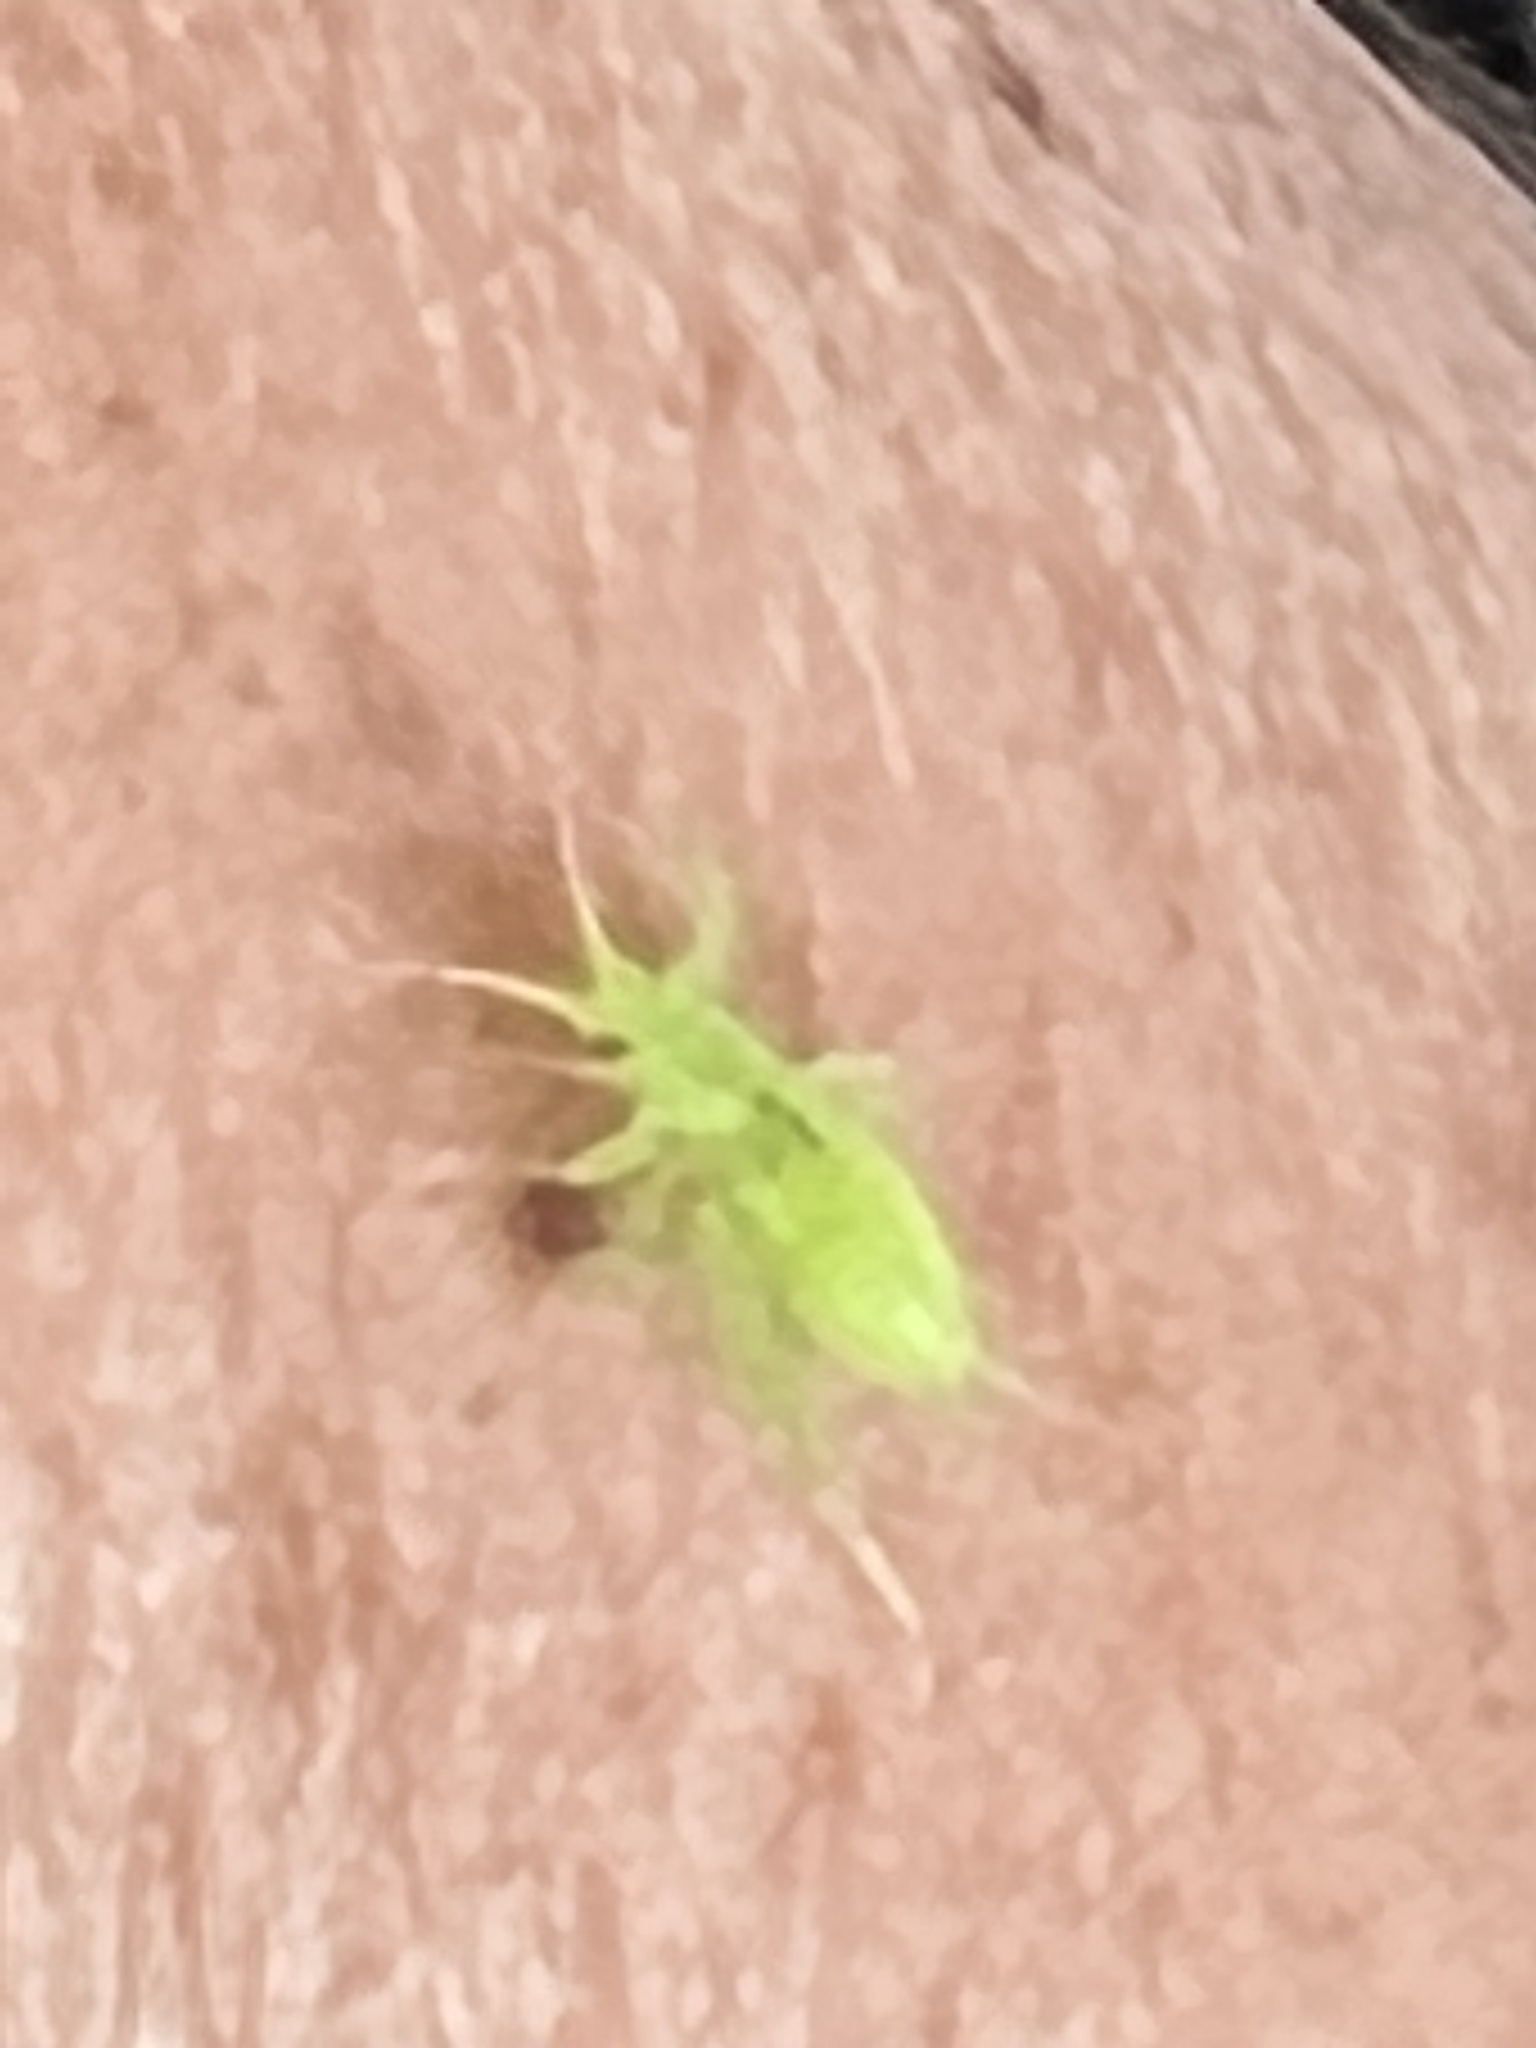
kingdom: Animalia
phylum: Arthropoda
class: Insecta
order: Orthoptera
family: Trigonidiidae
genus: Cyrtoxipha
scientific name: Cyrtoxipha columbiana
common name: Columbian trig
